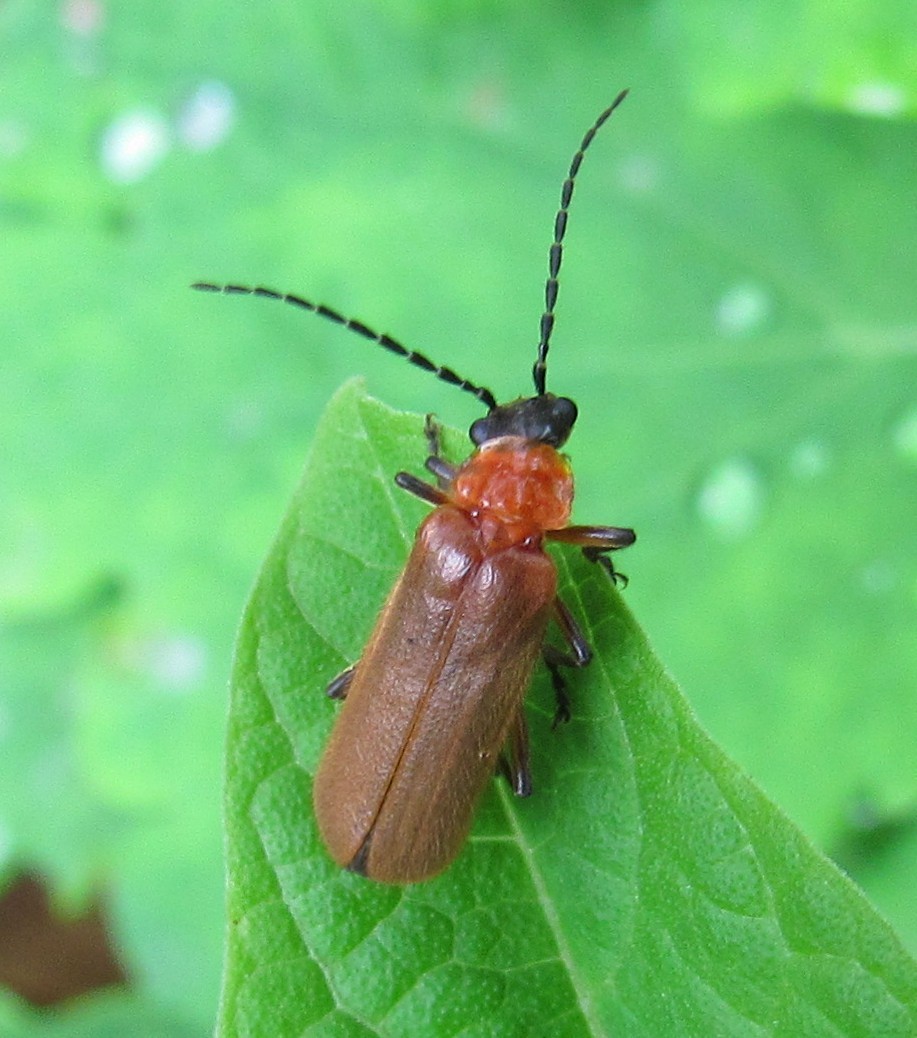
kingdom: Animalia
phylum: Arthropoda
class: Insecta
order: Coleoptera
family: Cantharidae
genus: Discodon
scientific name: Discodon
